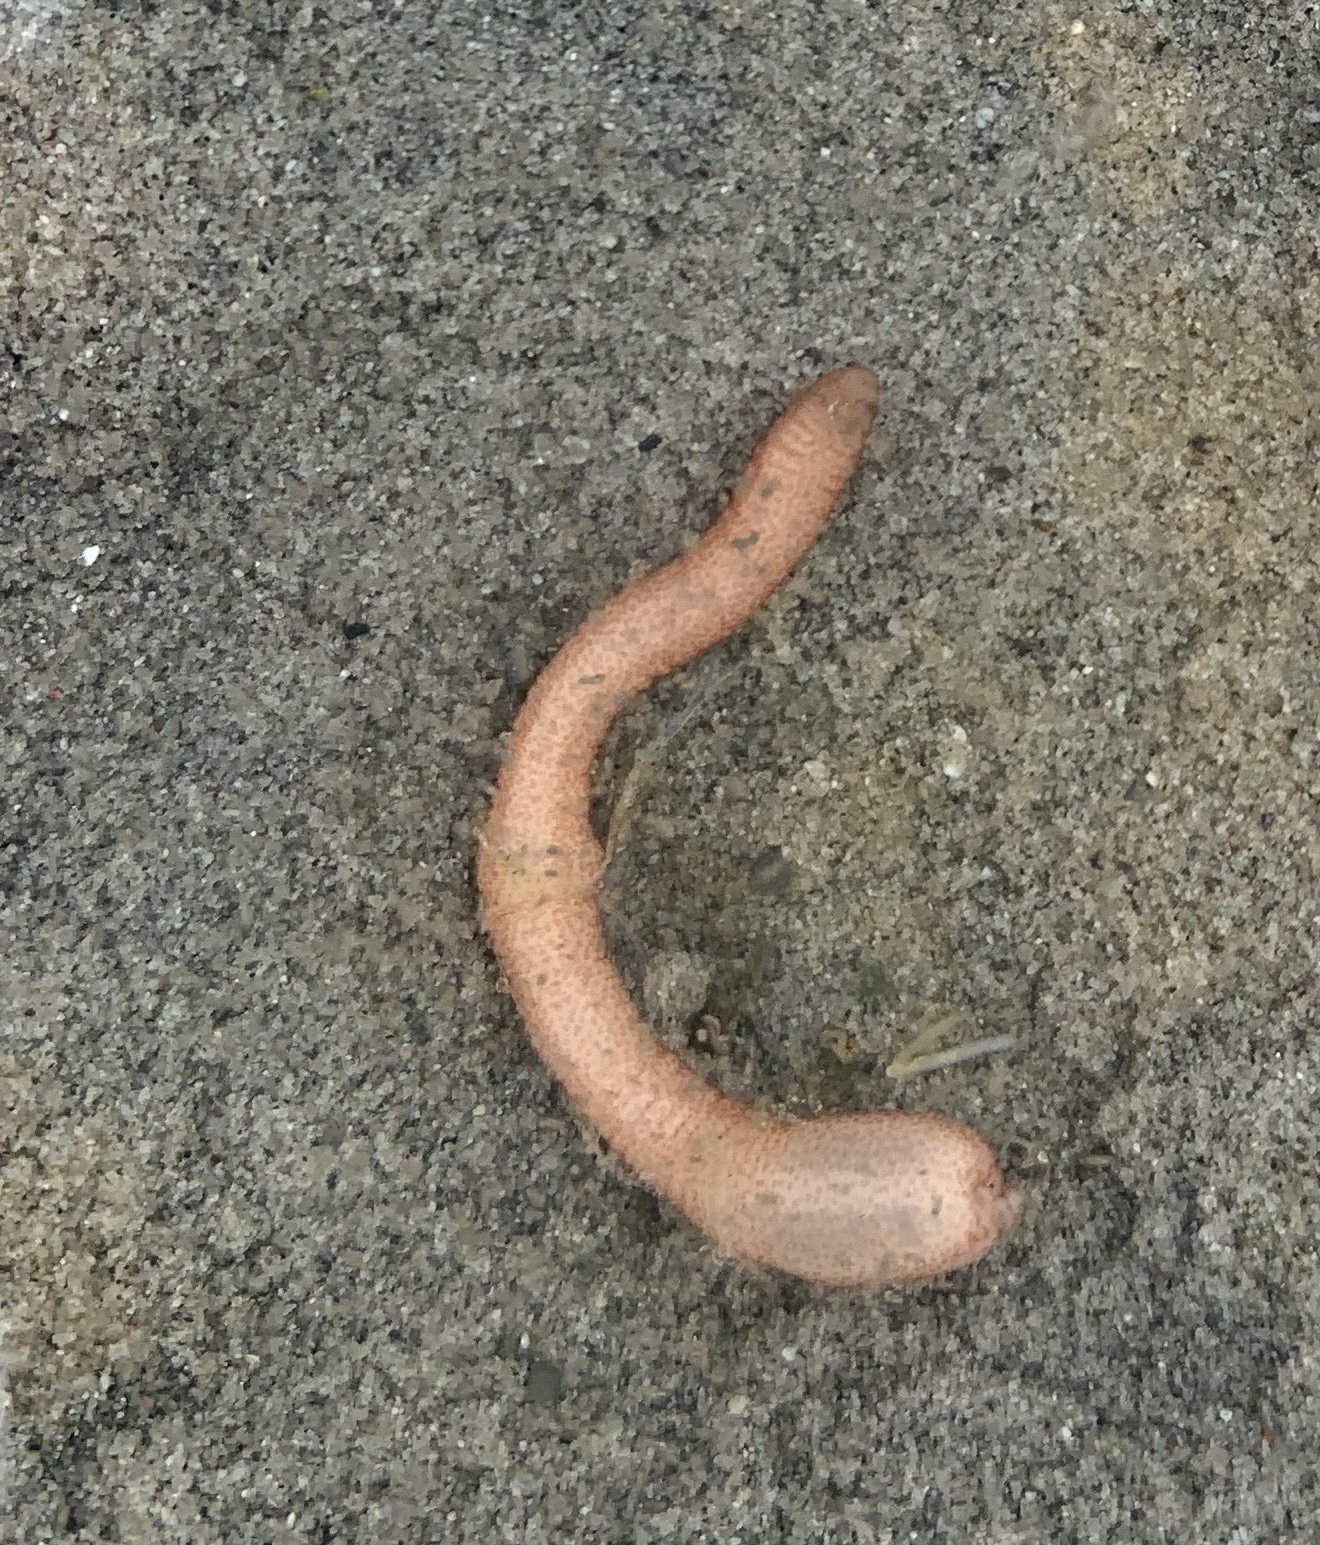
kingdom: Animalia
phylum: Sipuncula
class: Phascolosomatidea
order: Phascolosomatiformes
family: Phascolosomatidae
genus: Phascolosoma
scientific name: Phascolosoma agassizii
